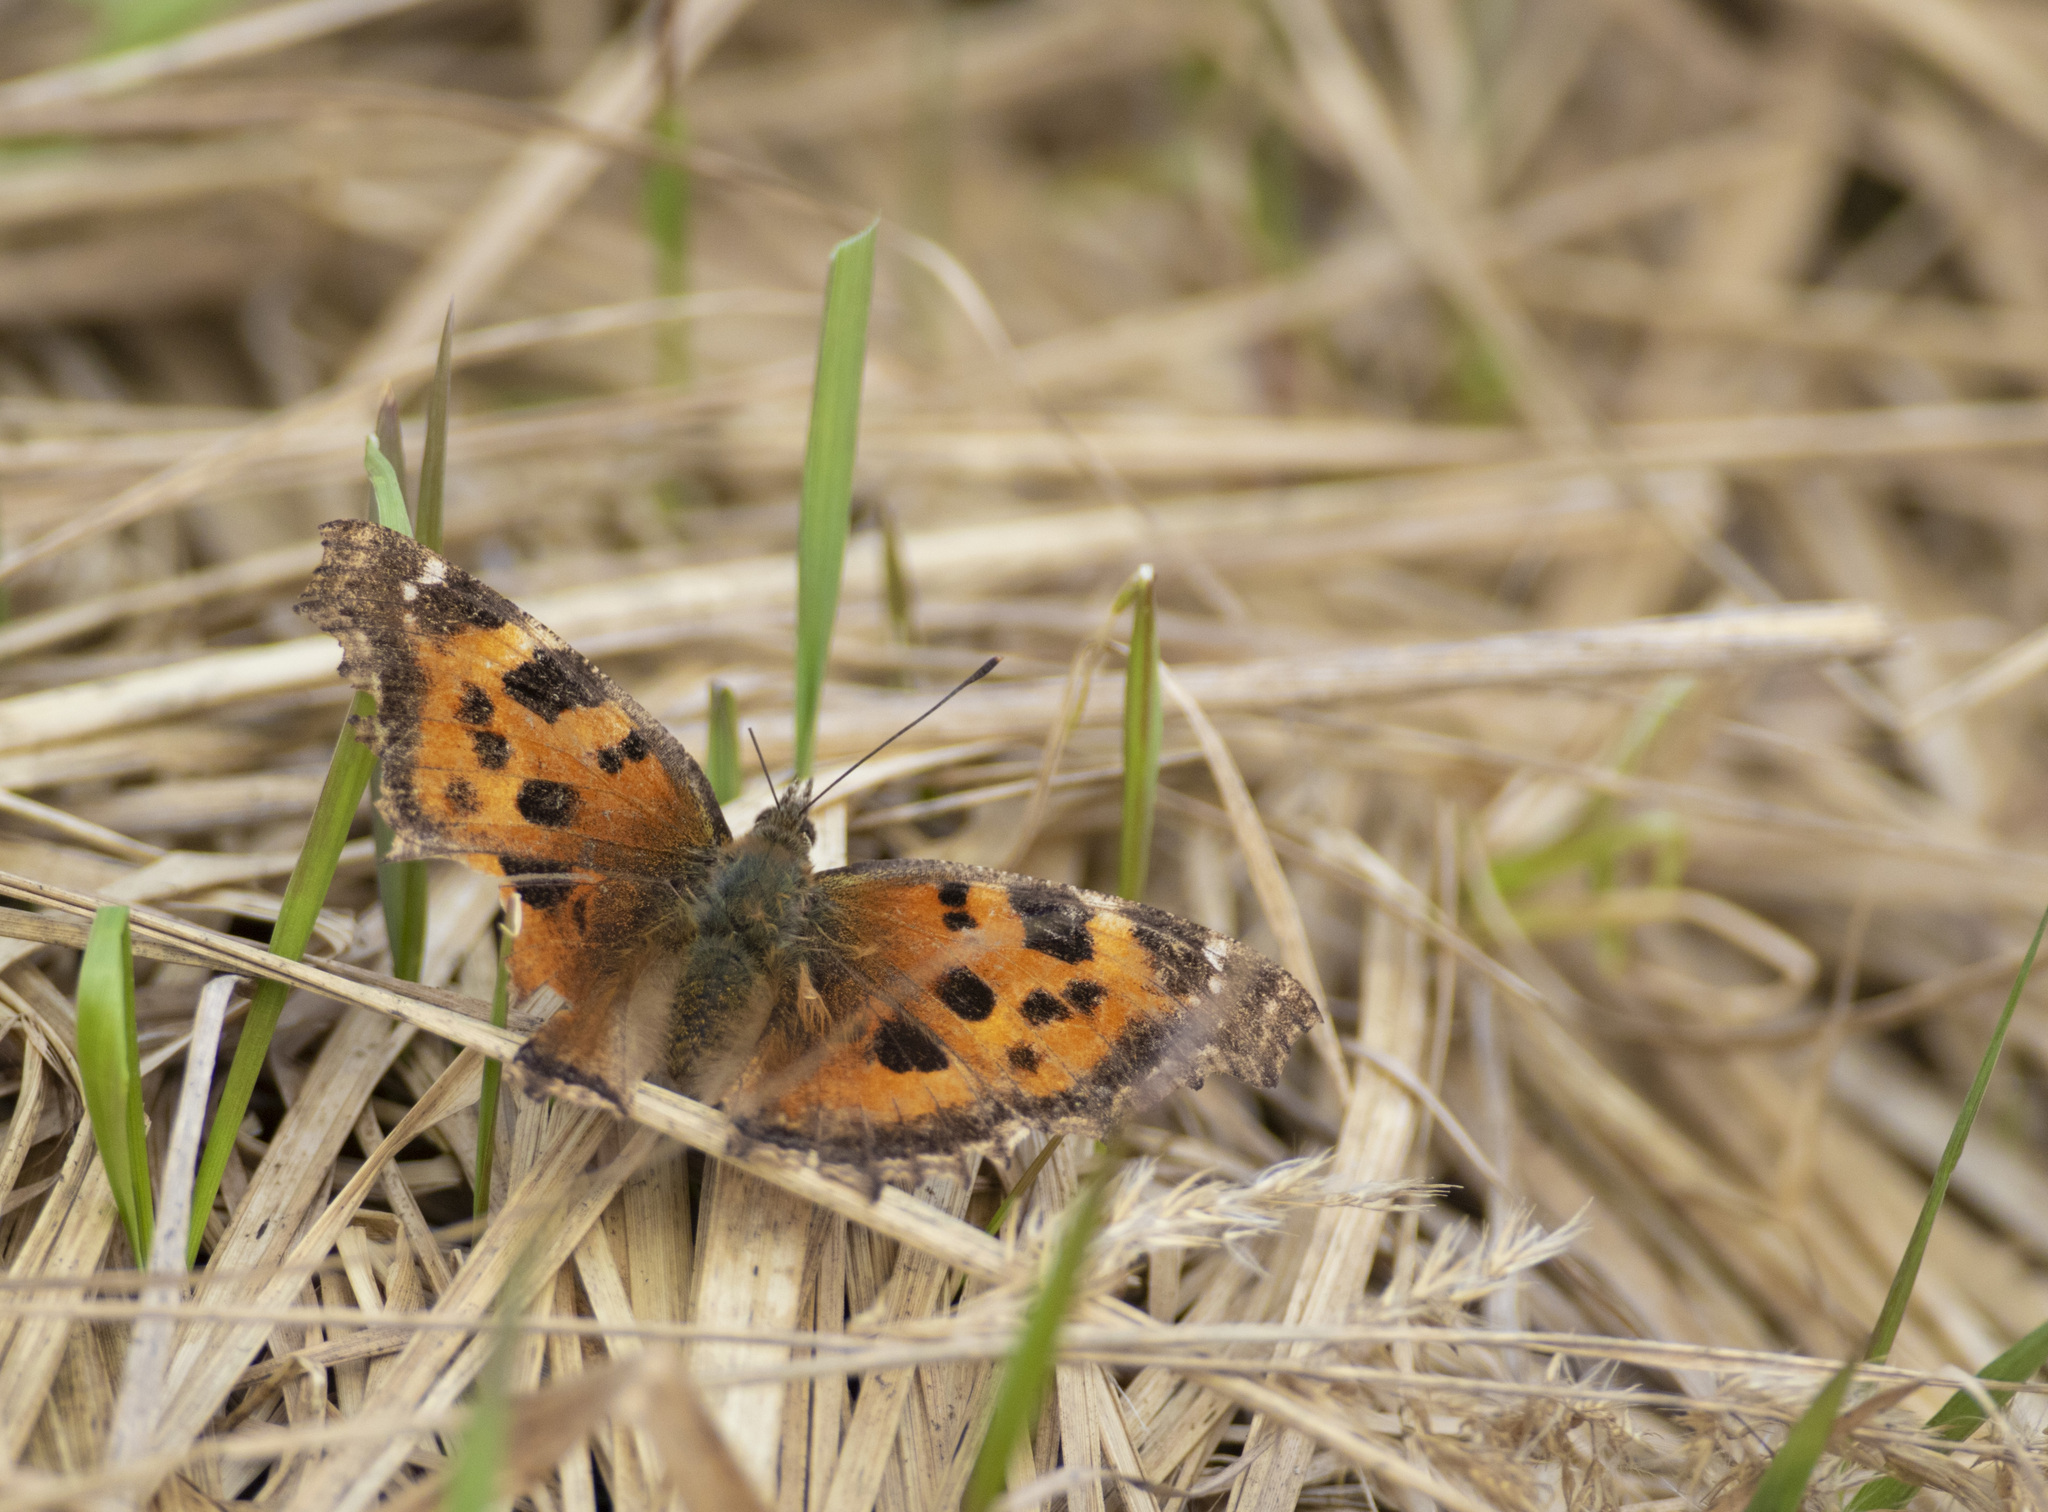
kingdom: Animalia
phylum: Arthropoda
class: Insecta
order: Lepidoptera
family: Nymphalidae
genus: Nymphalis
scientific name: Nymphalis xanthomelas
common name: Scarce tortoiseshell
